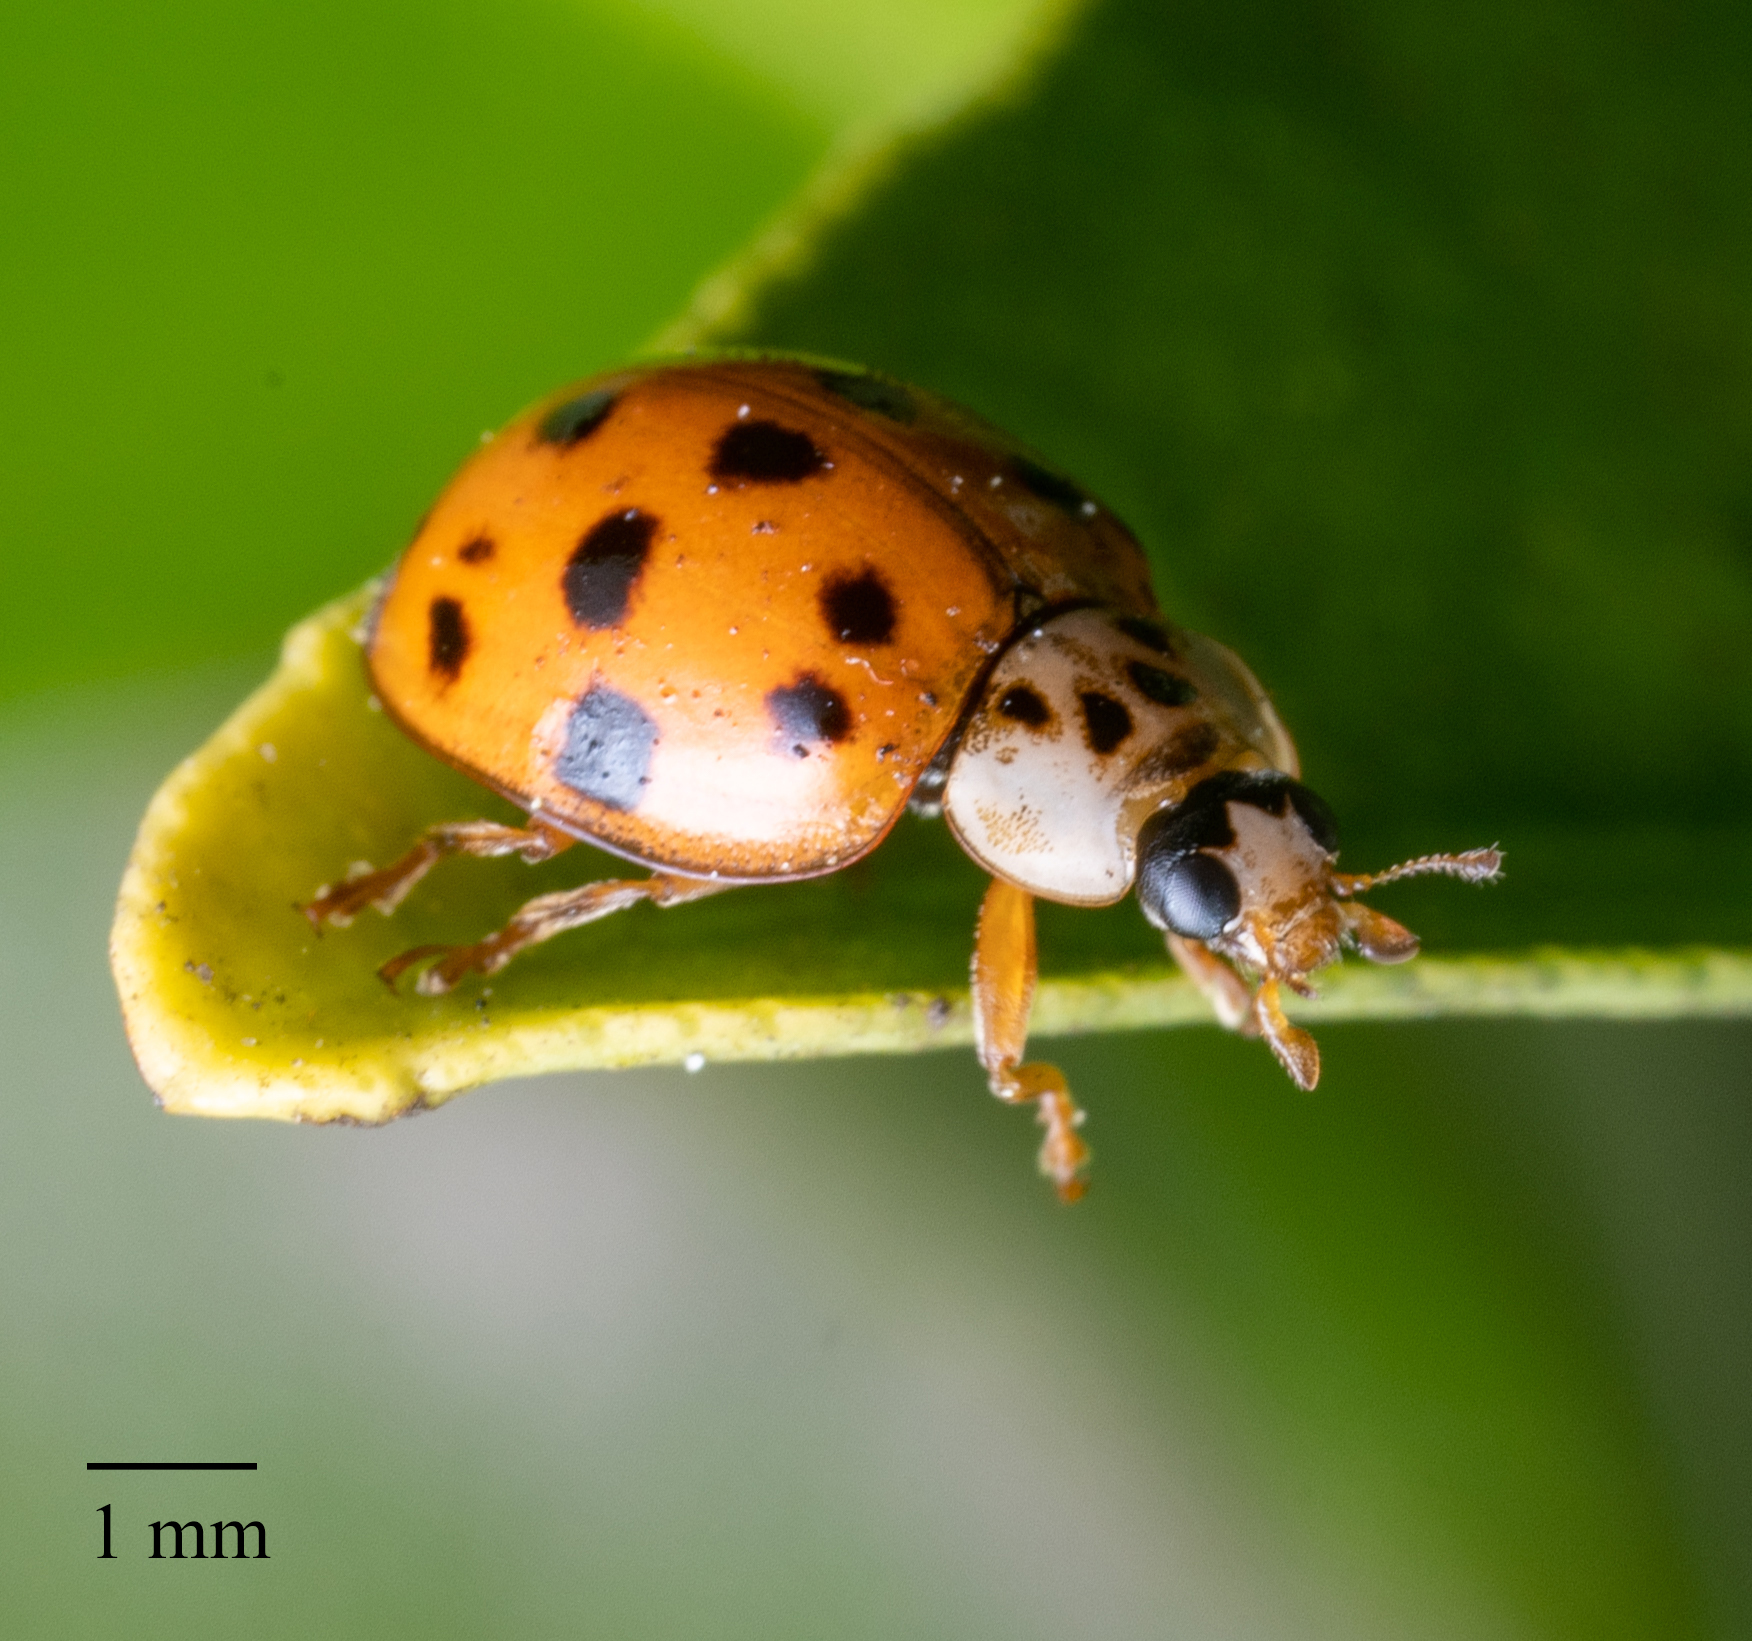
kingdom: Animalia
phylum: Arthropoda
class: Insecta
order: Coleoptera
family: Coccinellidae
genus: Harmonia
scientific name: Harmonia axyridis
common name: Harlequin ladybird
